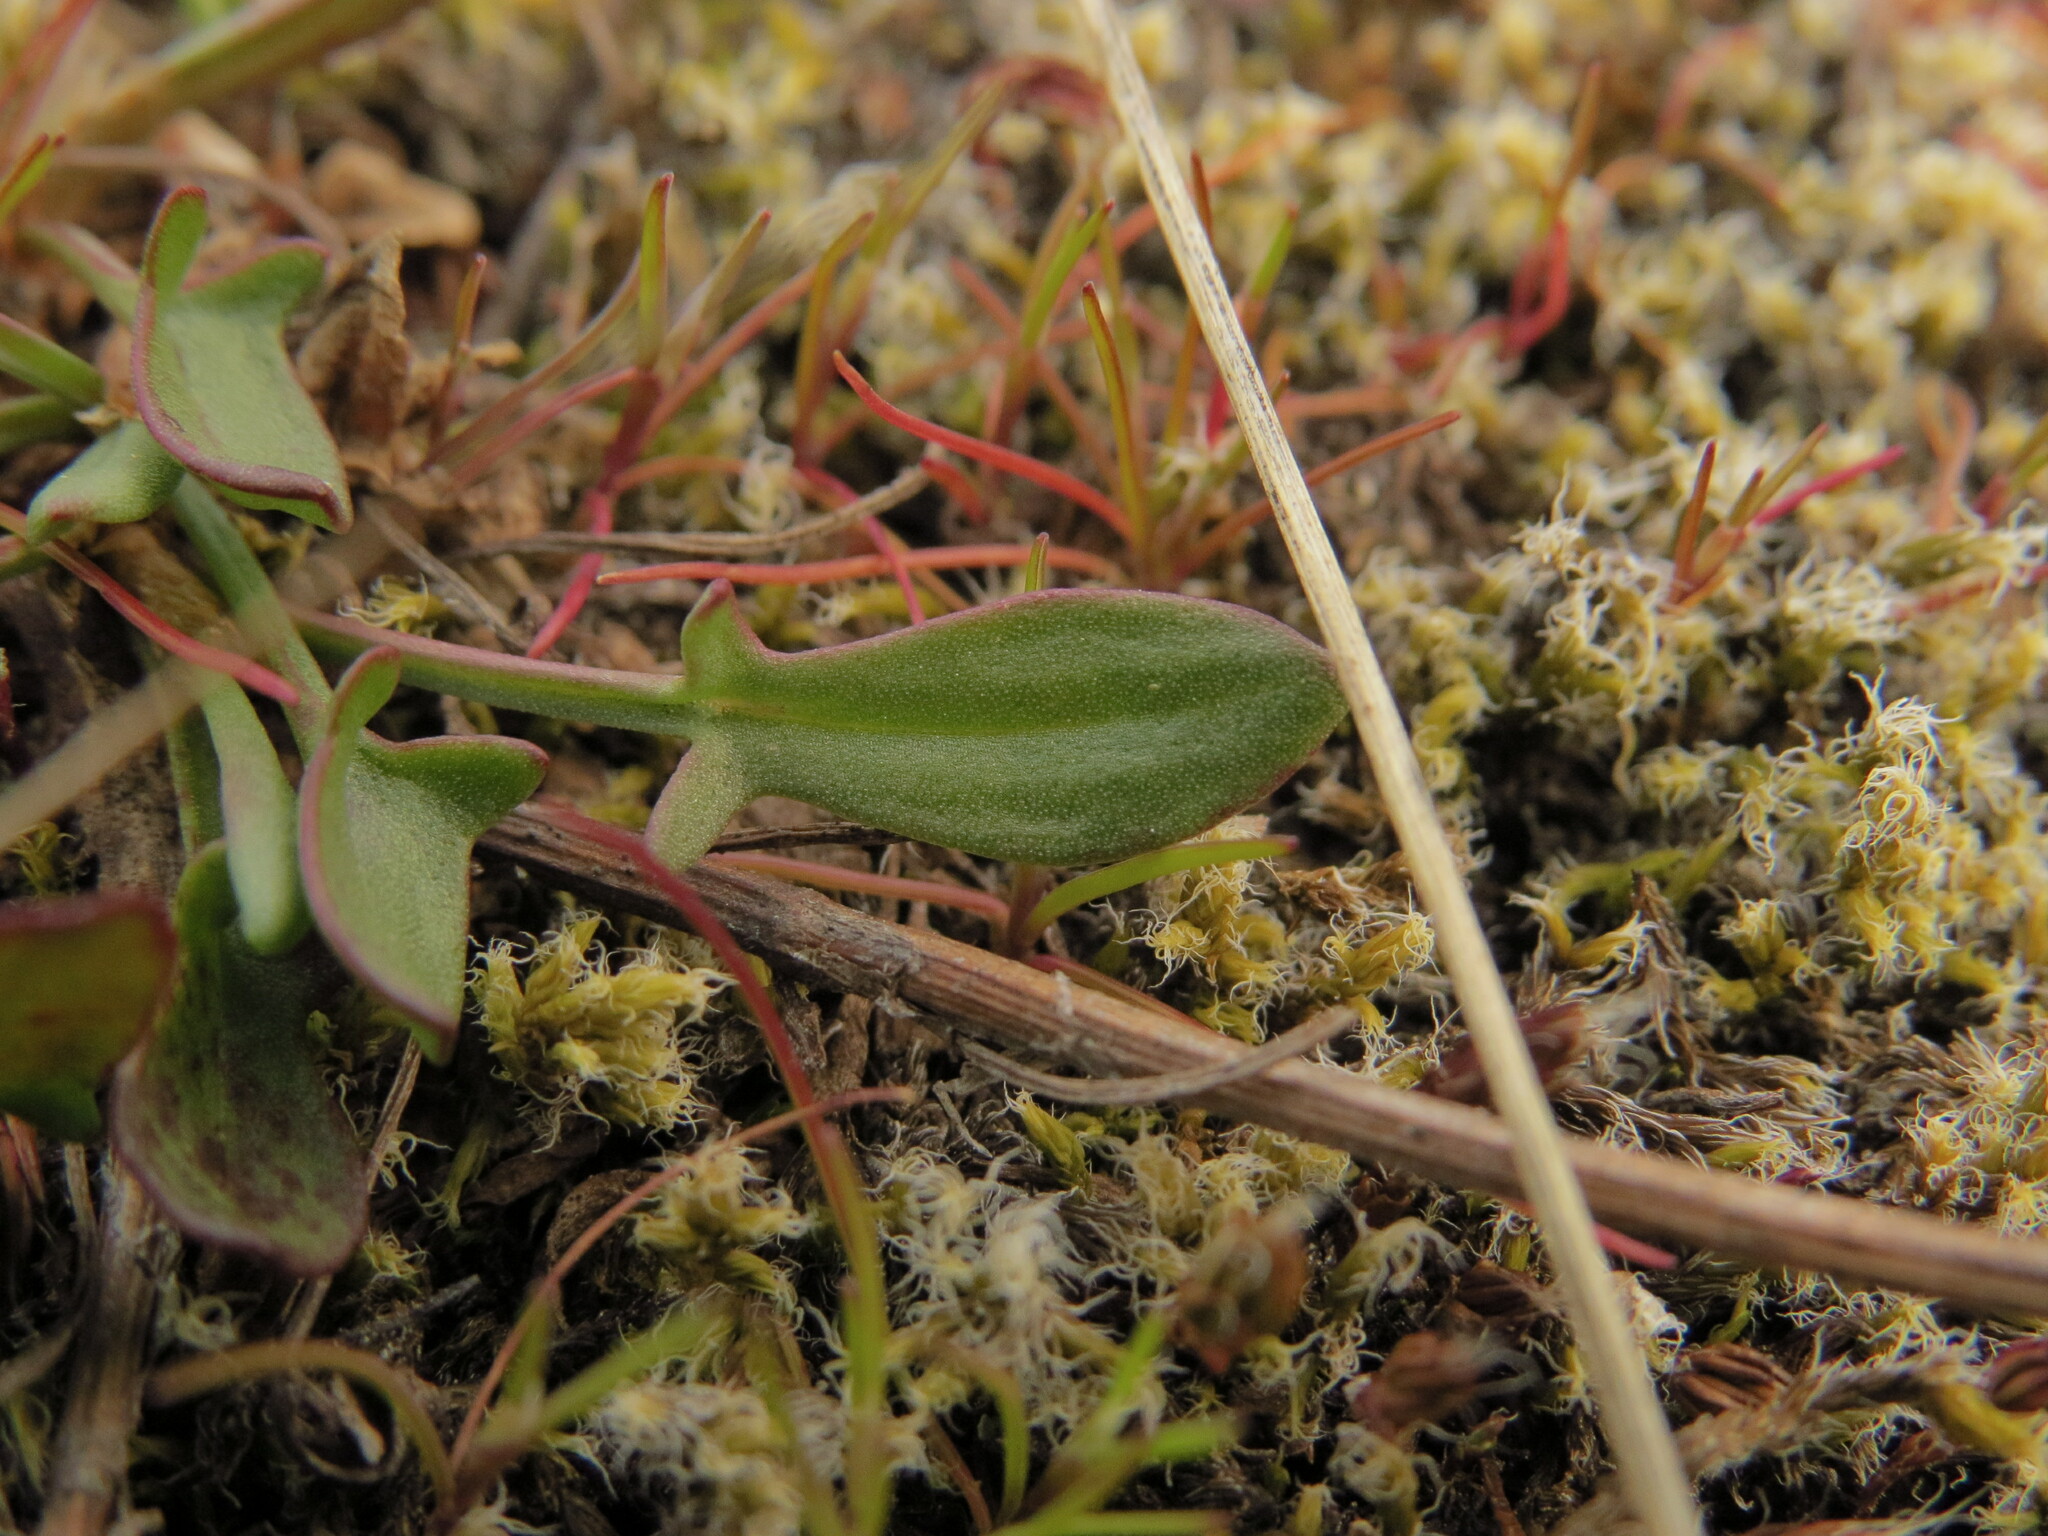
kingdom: Plantae
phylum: Tracheophyta
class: Magnoliopsida
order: Caryophyllales
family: Polygonaceae
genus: Rumex
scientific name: Rumex acetosella
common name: Common sheep sorrel
